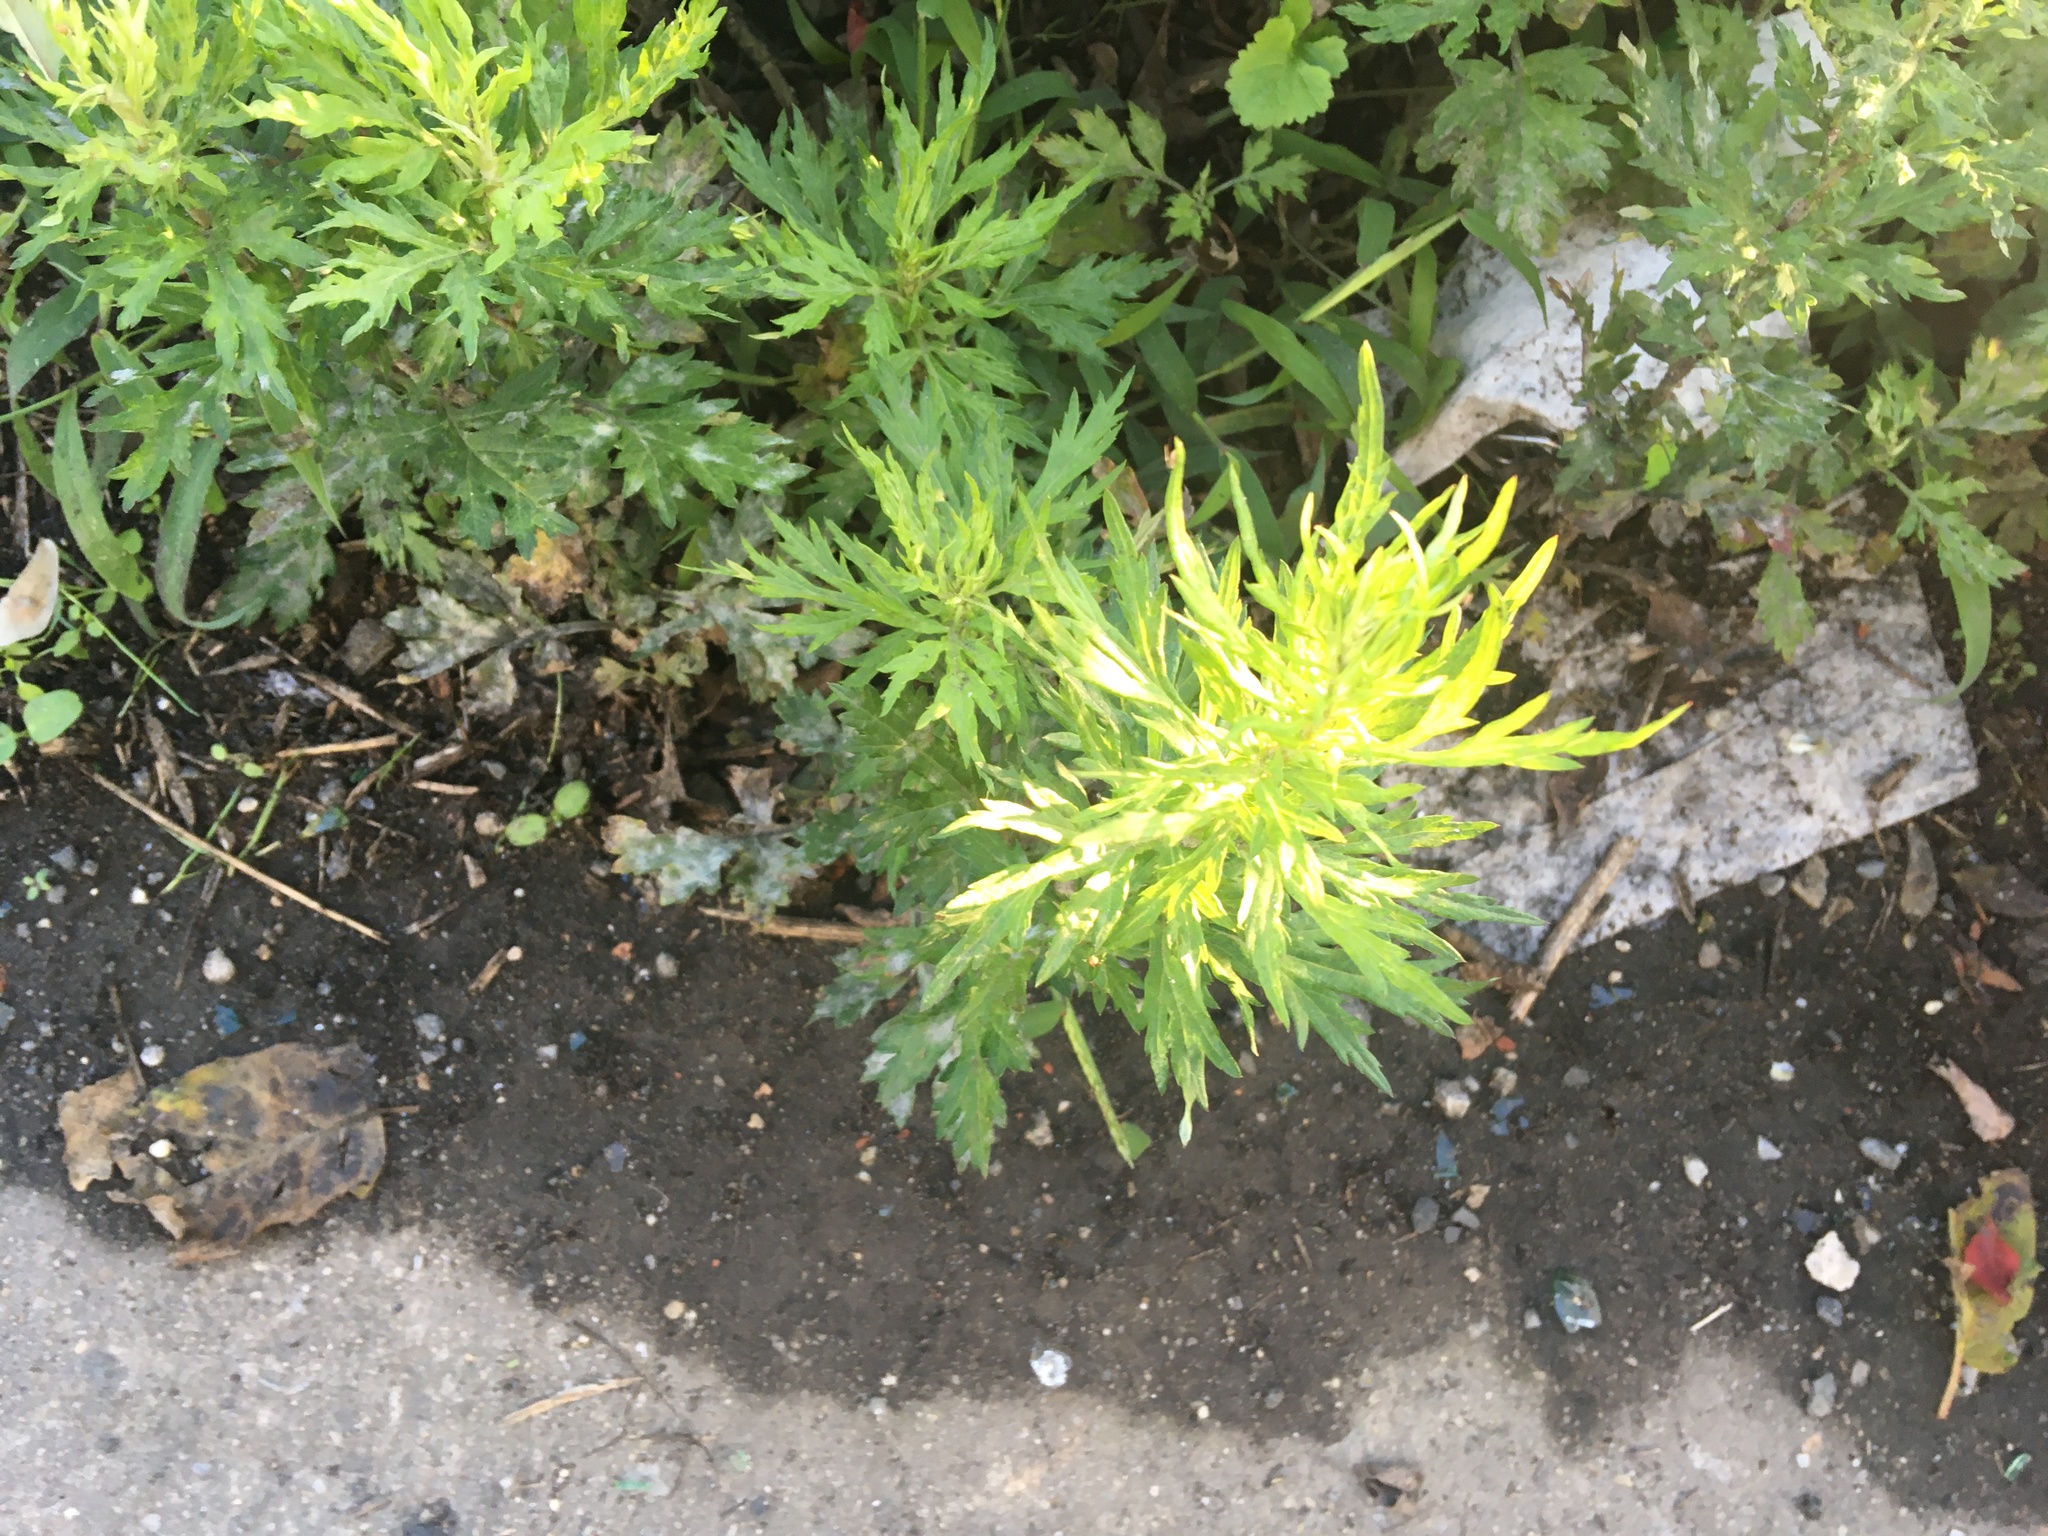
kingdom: Plantae
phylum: Tracheophyta
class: Magnoliopsida
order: Asterales
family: Asteraceae
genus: Artemisia
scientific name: Artemisia vulgaris
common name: Mugwort
